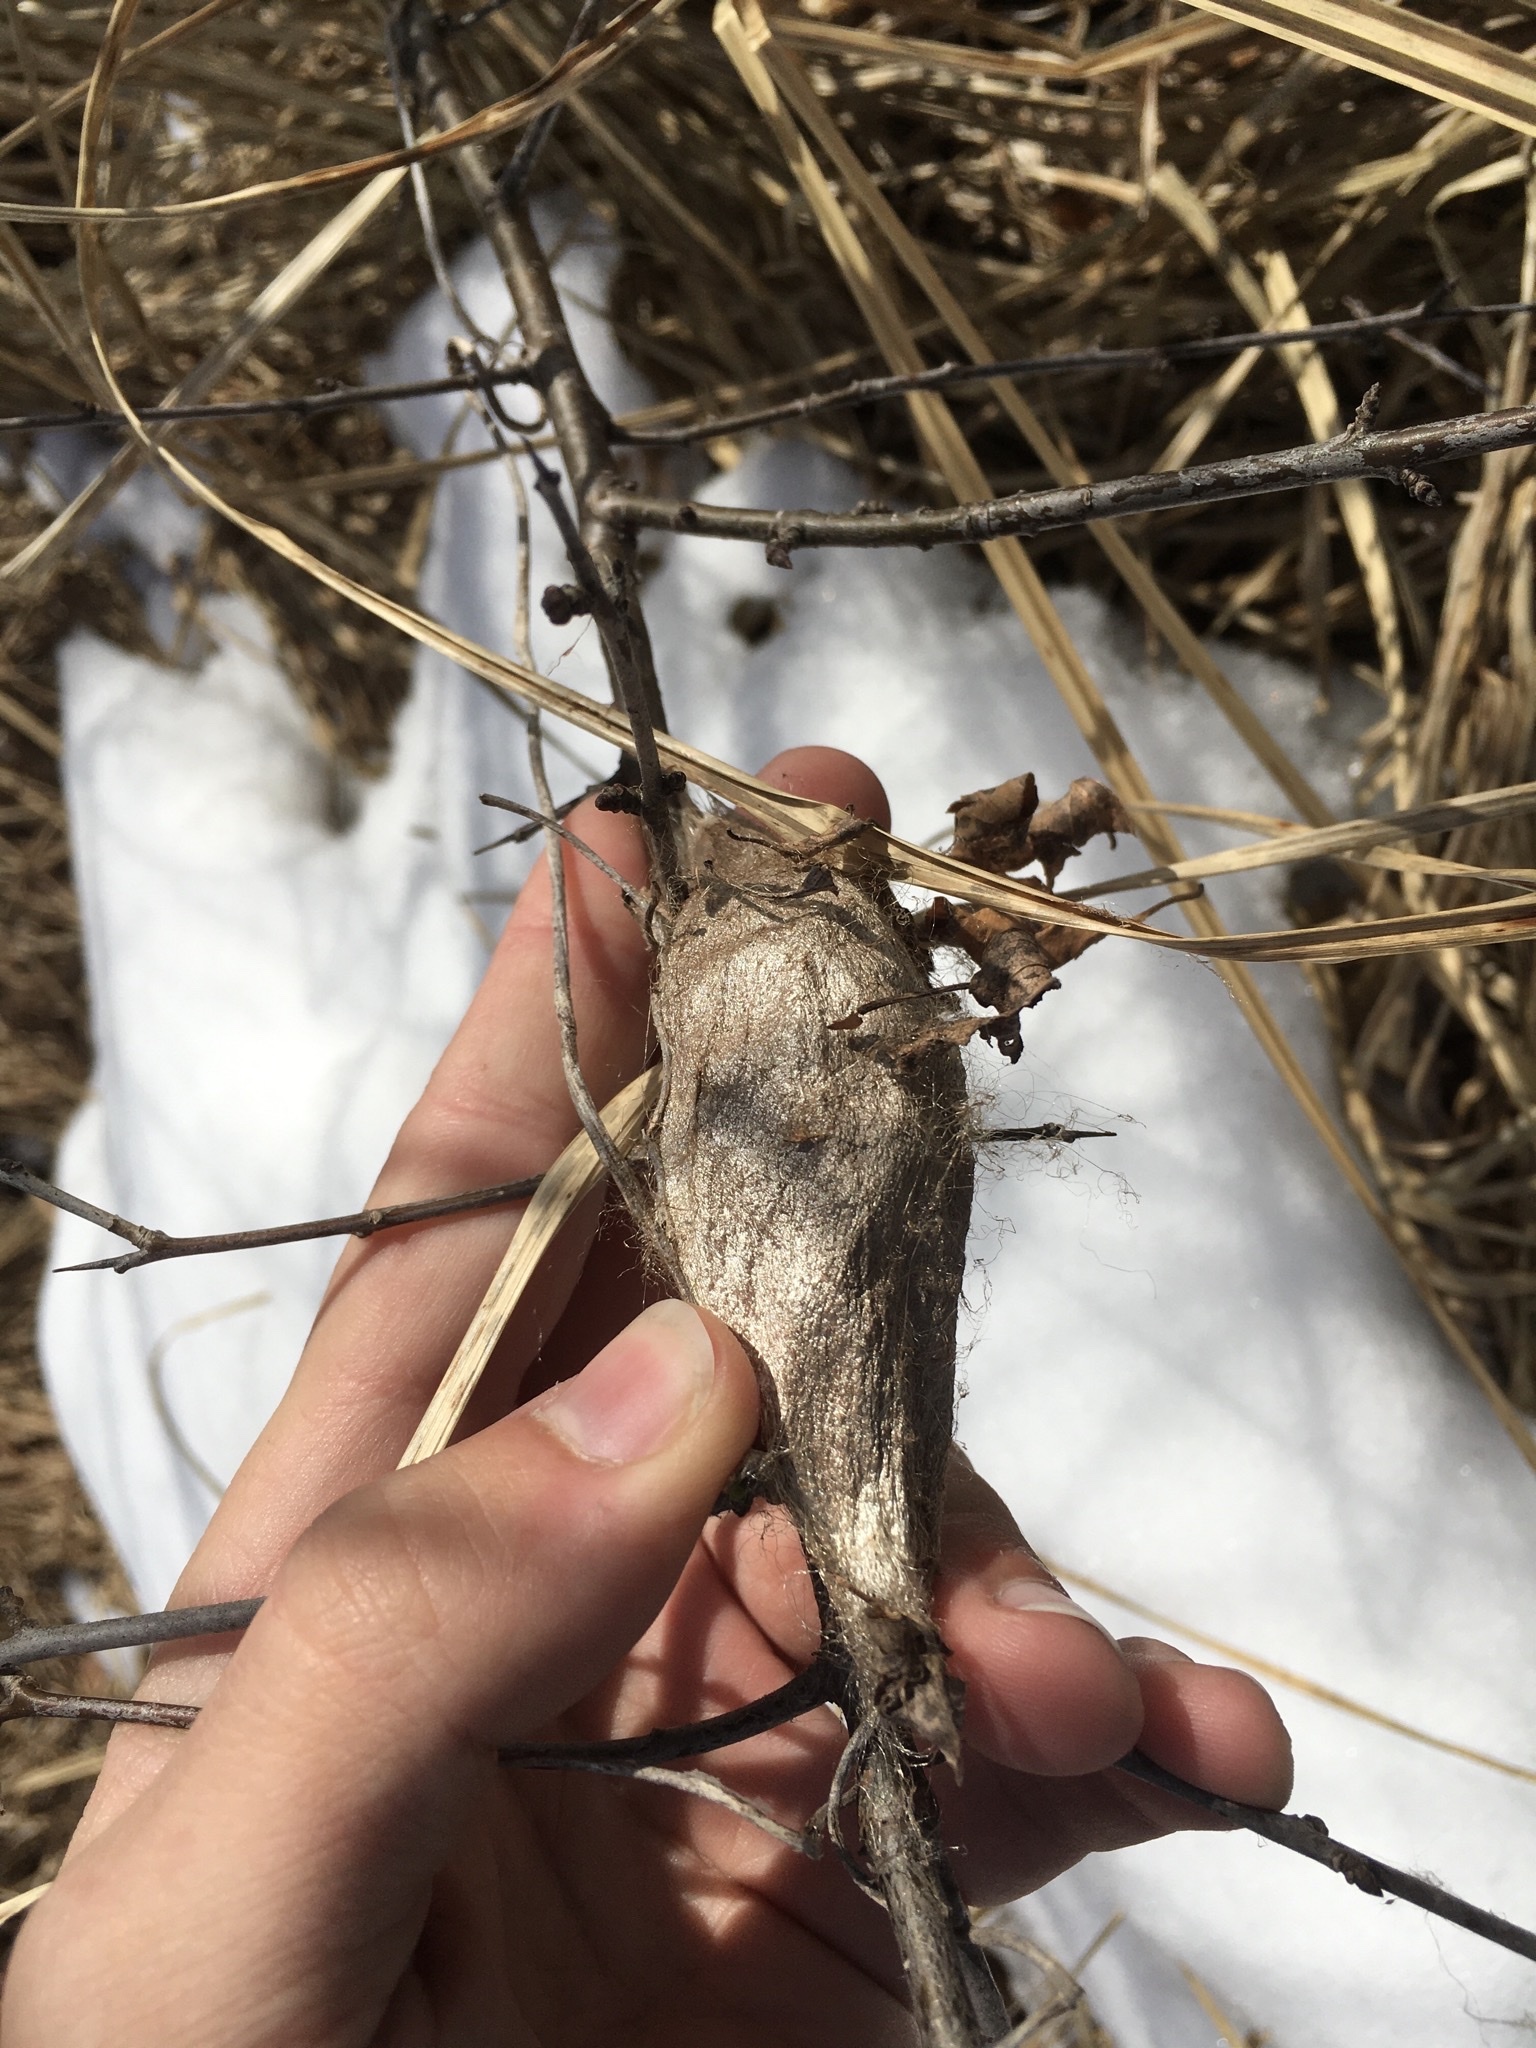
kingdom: Animalia
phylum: Arthropoda
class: Insecta
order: Lepidoptera
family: Saturniidae
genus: Hyalophora
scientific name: Hyalophora cecropia
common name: Cecropia silkmoth
